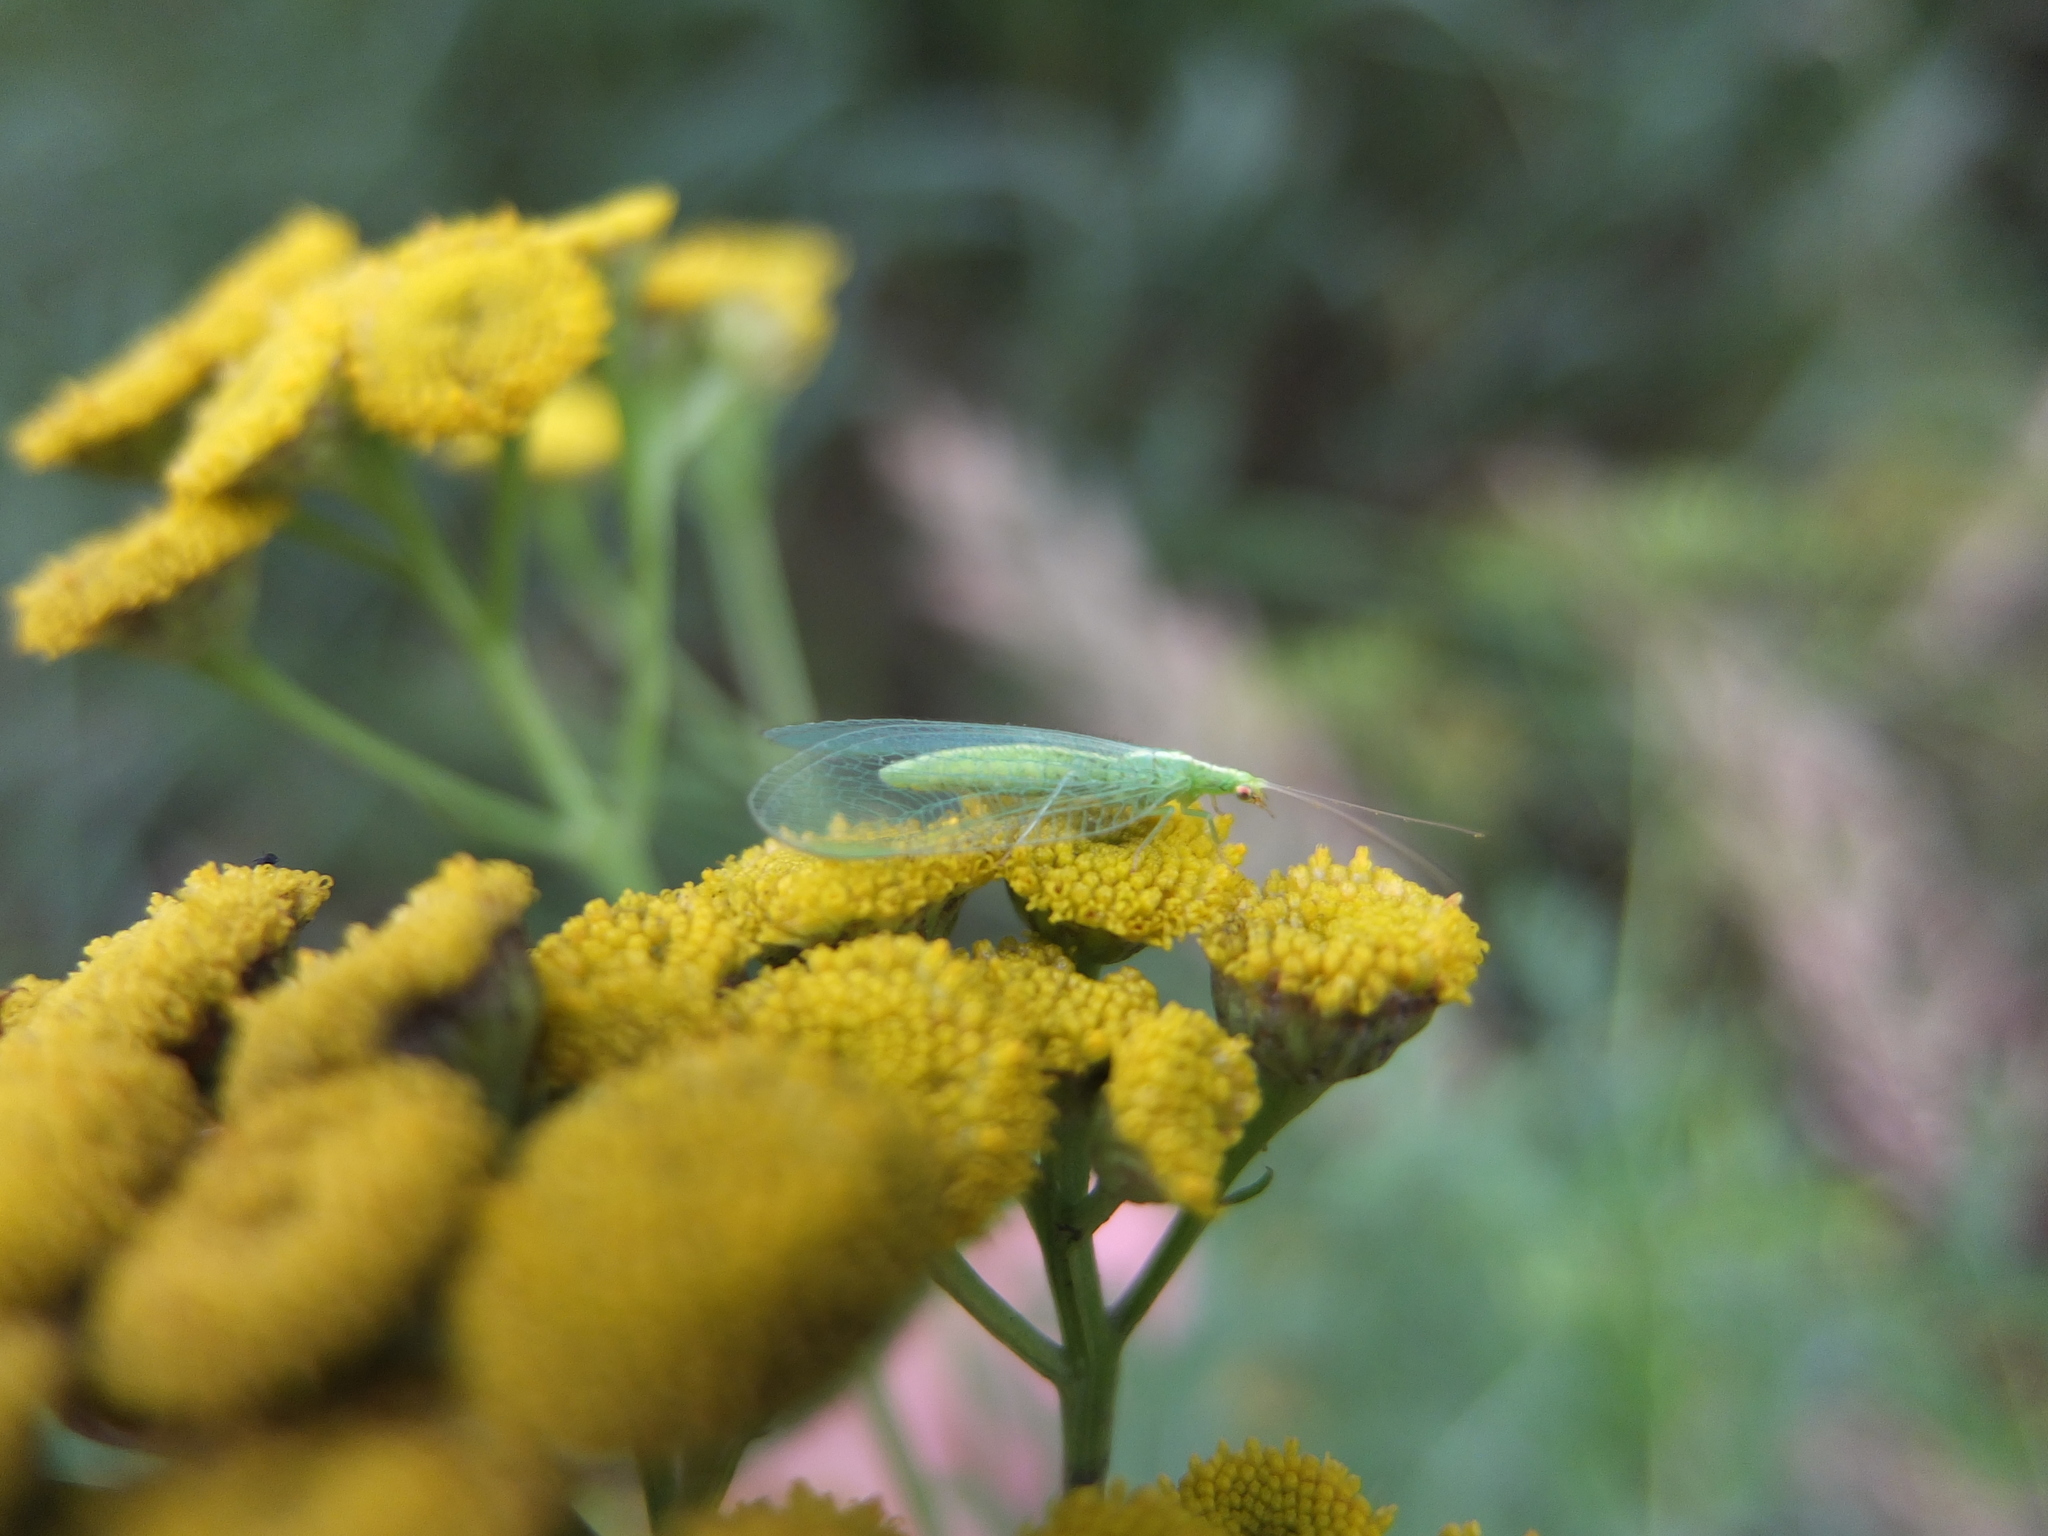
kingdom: Animalia
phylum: Arthropoda
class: Insecta
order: Neuroptera
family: Chrysopidae
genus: Chrysoperla
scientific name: Chrysoperla
